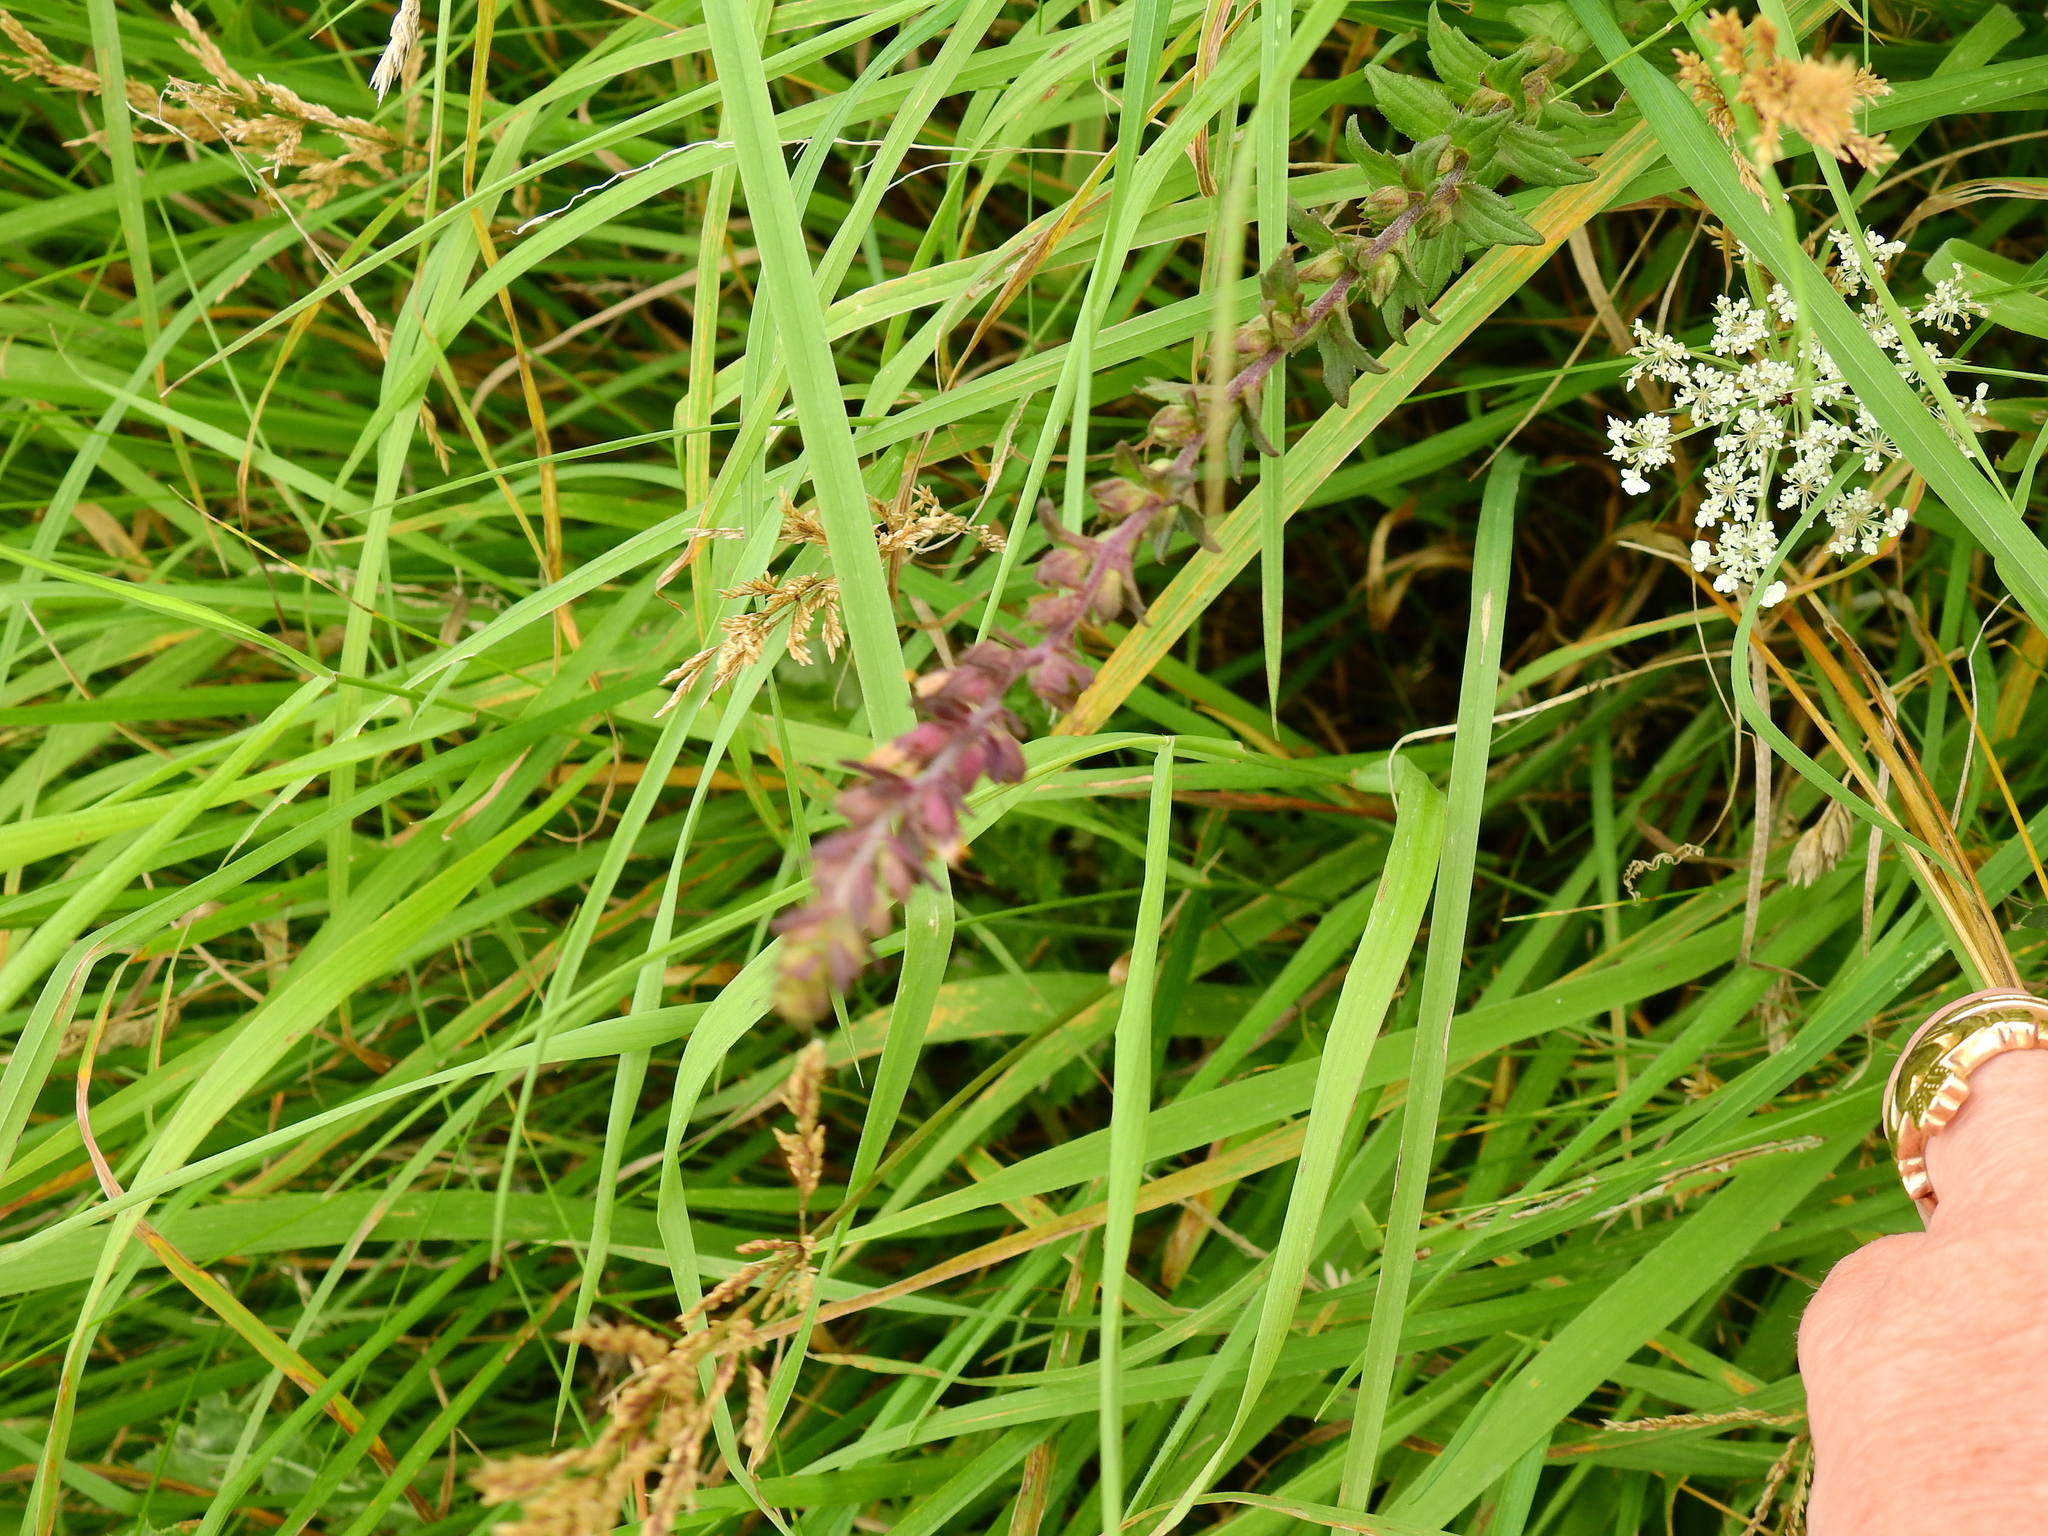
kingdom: Plantae
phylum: Tracheophyta
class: Magnoliopsida
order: Lamiales
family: Orobanchaceae
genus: Odontites
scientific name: Odontites vulgaris
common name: Broomrape
